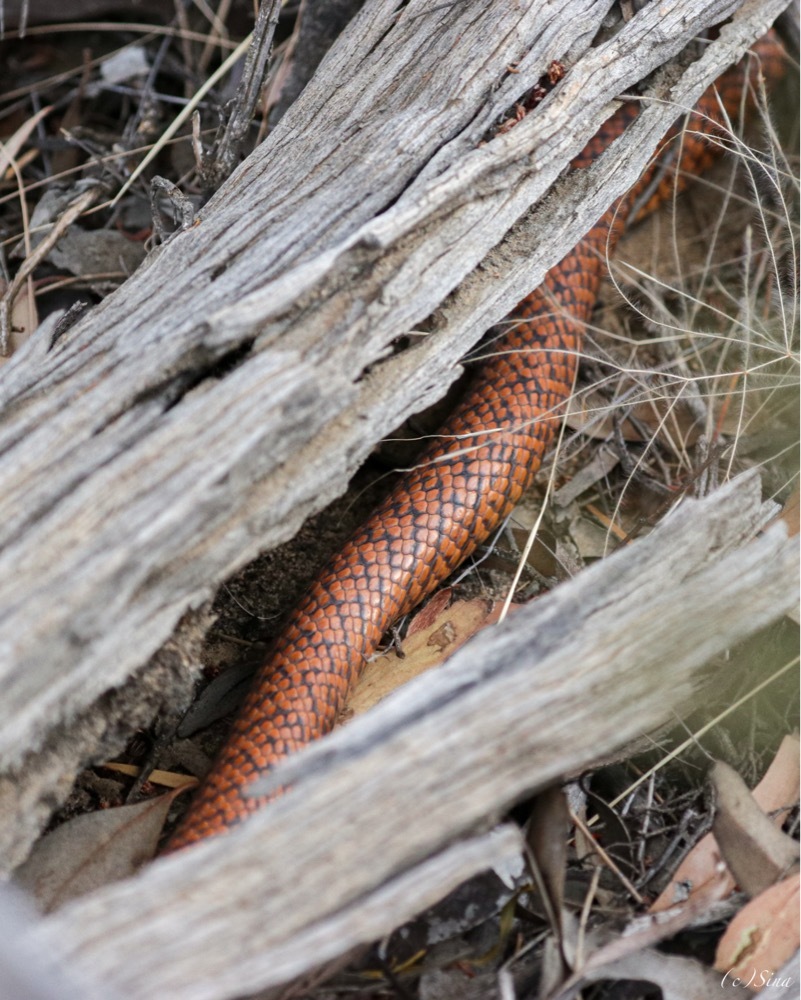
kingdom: Animalia
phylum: Chordata
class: Squamata
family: Elapidae
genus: Pseudonaja
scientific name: Pseudonaja mengdeni
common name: Gwardar
